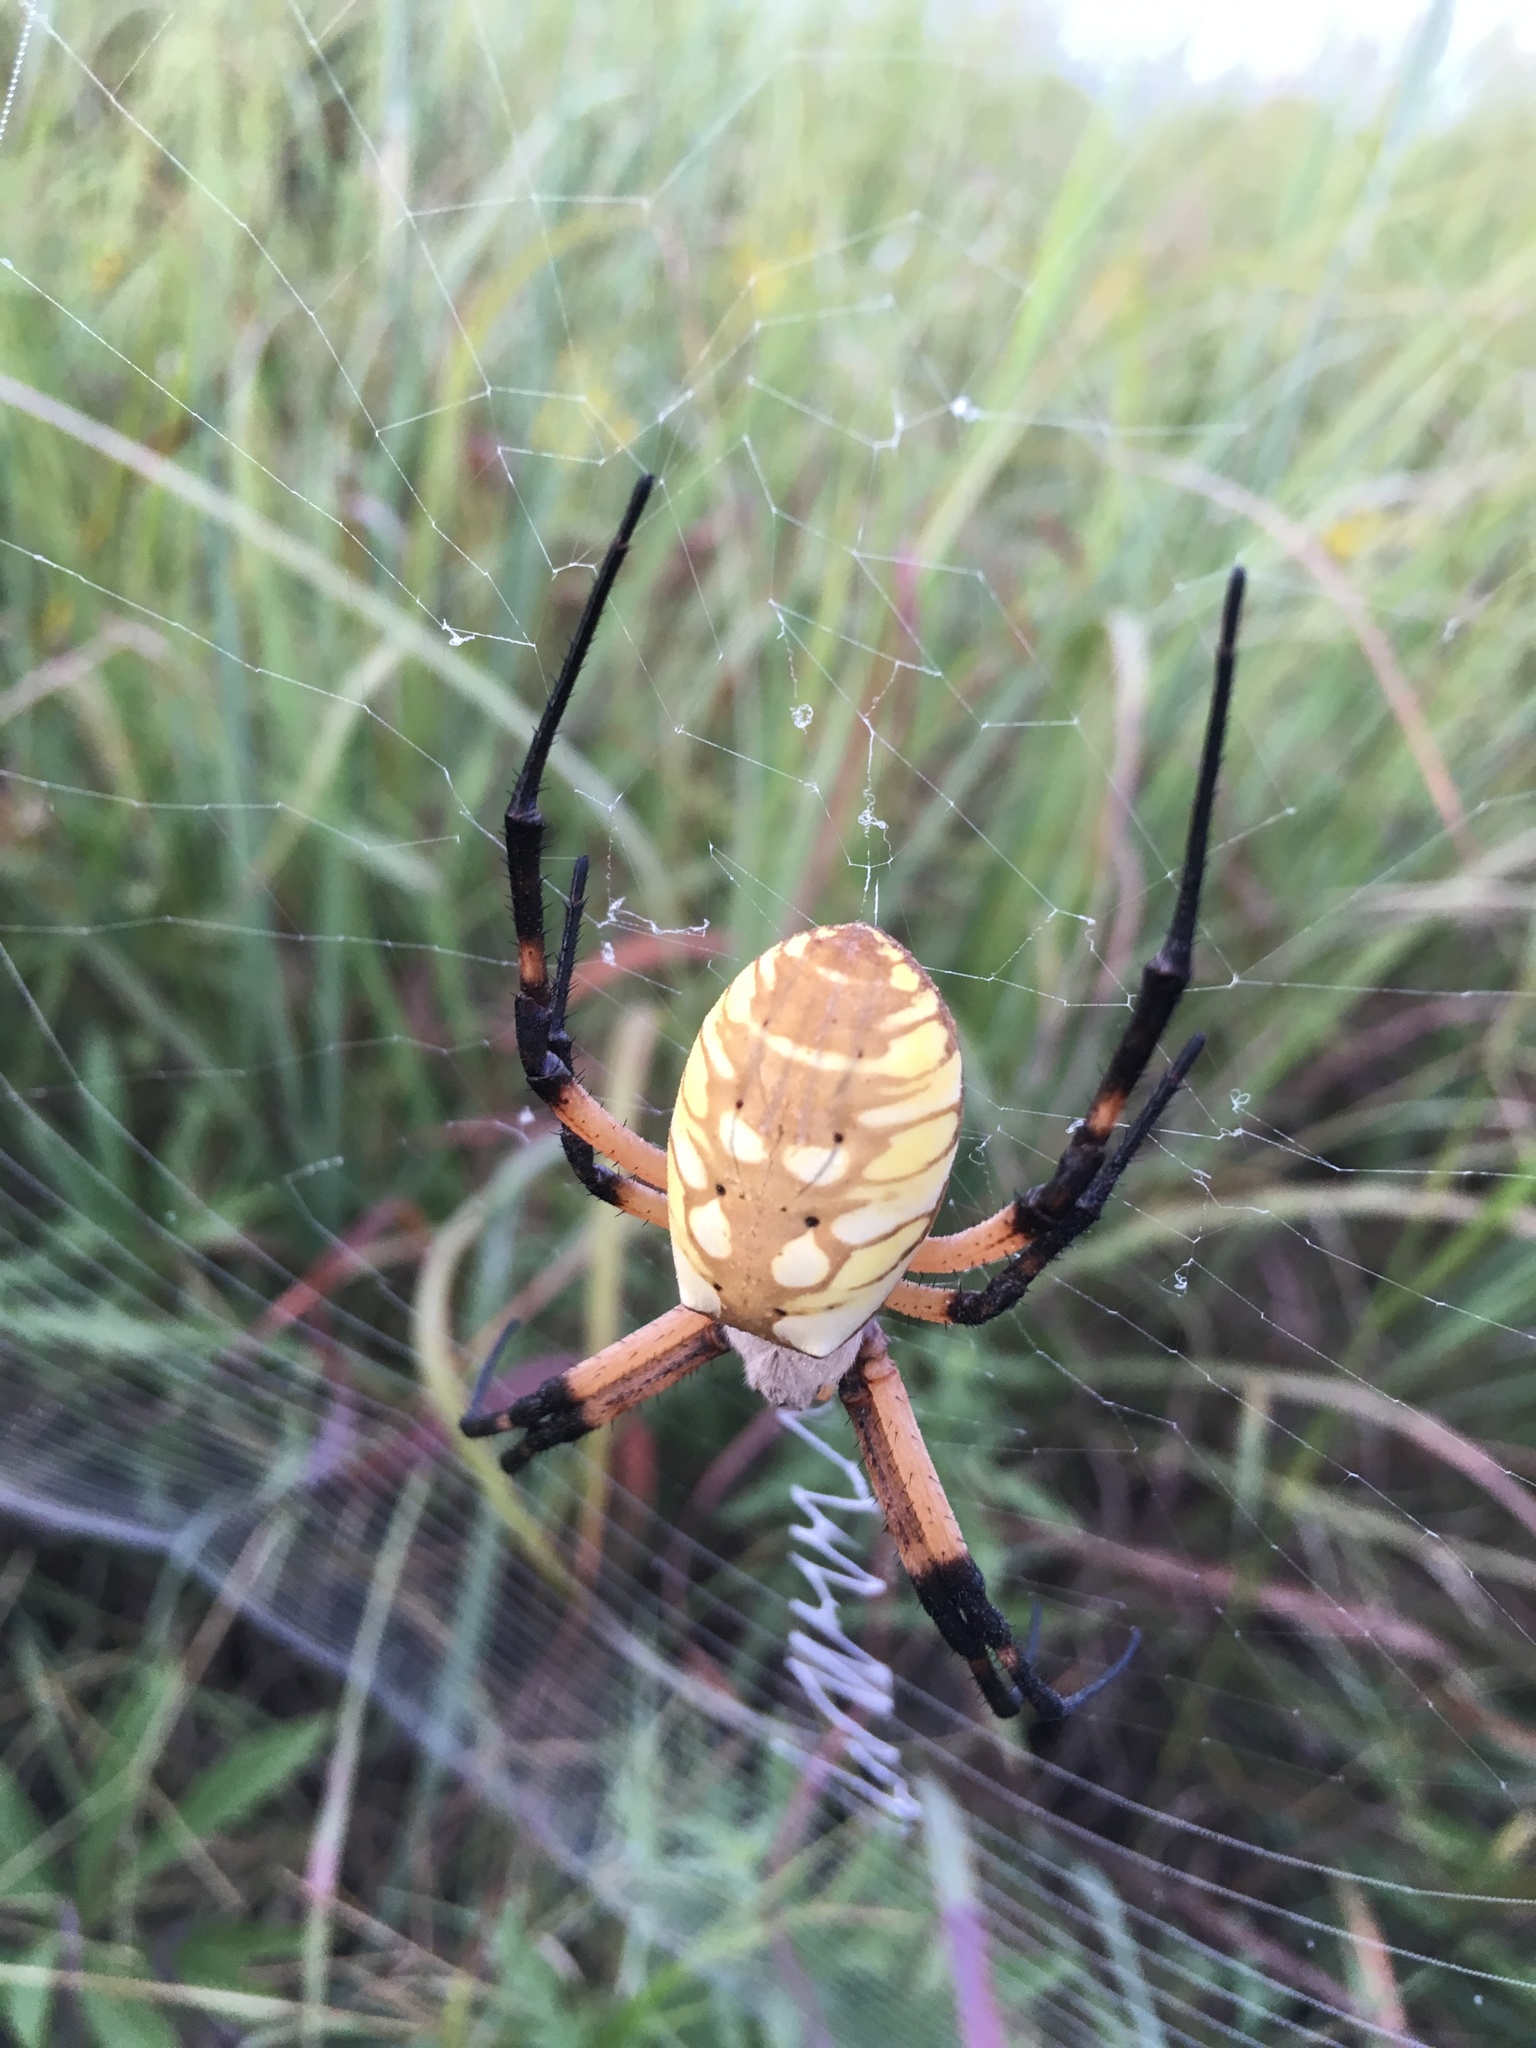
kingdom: Animalia
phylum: Arthropoda
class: Arachnida
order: Araneae
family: Araneidae
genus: Argiope
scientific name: Argiope aurantia
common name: Orb weavers
